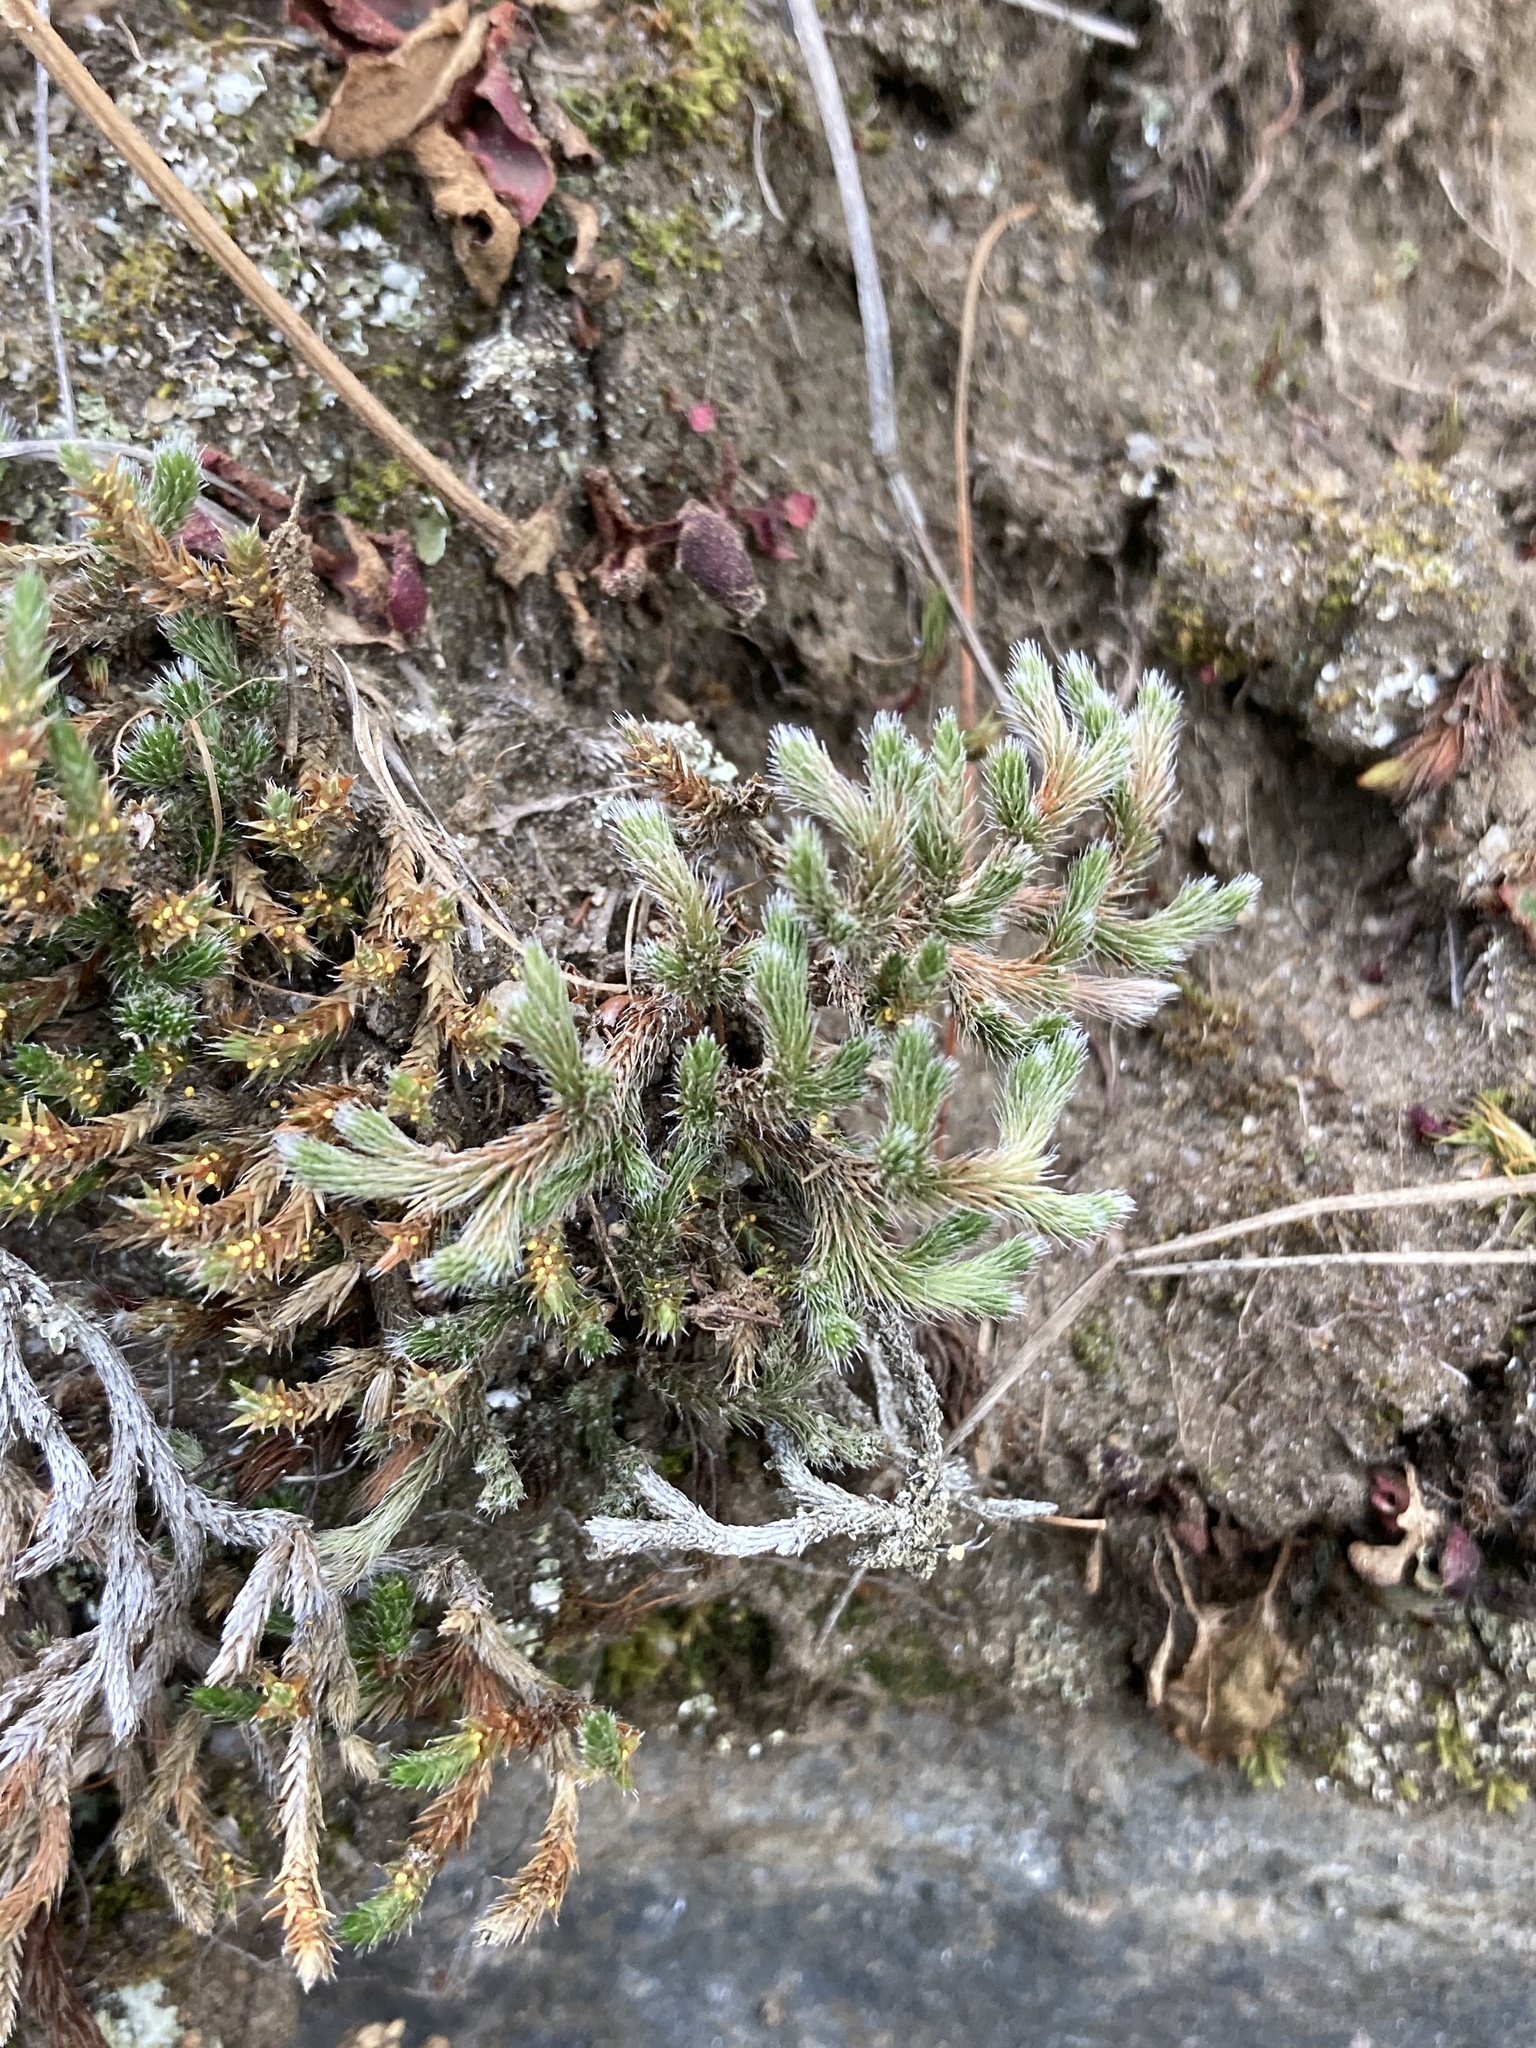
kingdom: Plantae
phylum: Tracheophyta
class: Lycopodiopsida
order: Selaginellales
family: Selaginellaceae
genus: Selaginella
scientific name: Selaginella rupestris
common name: Dwarf spikemoss
